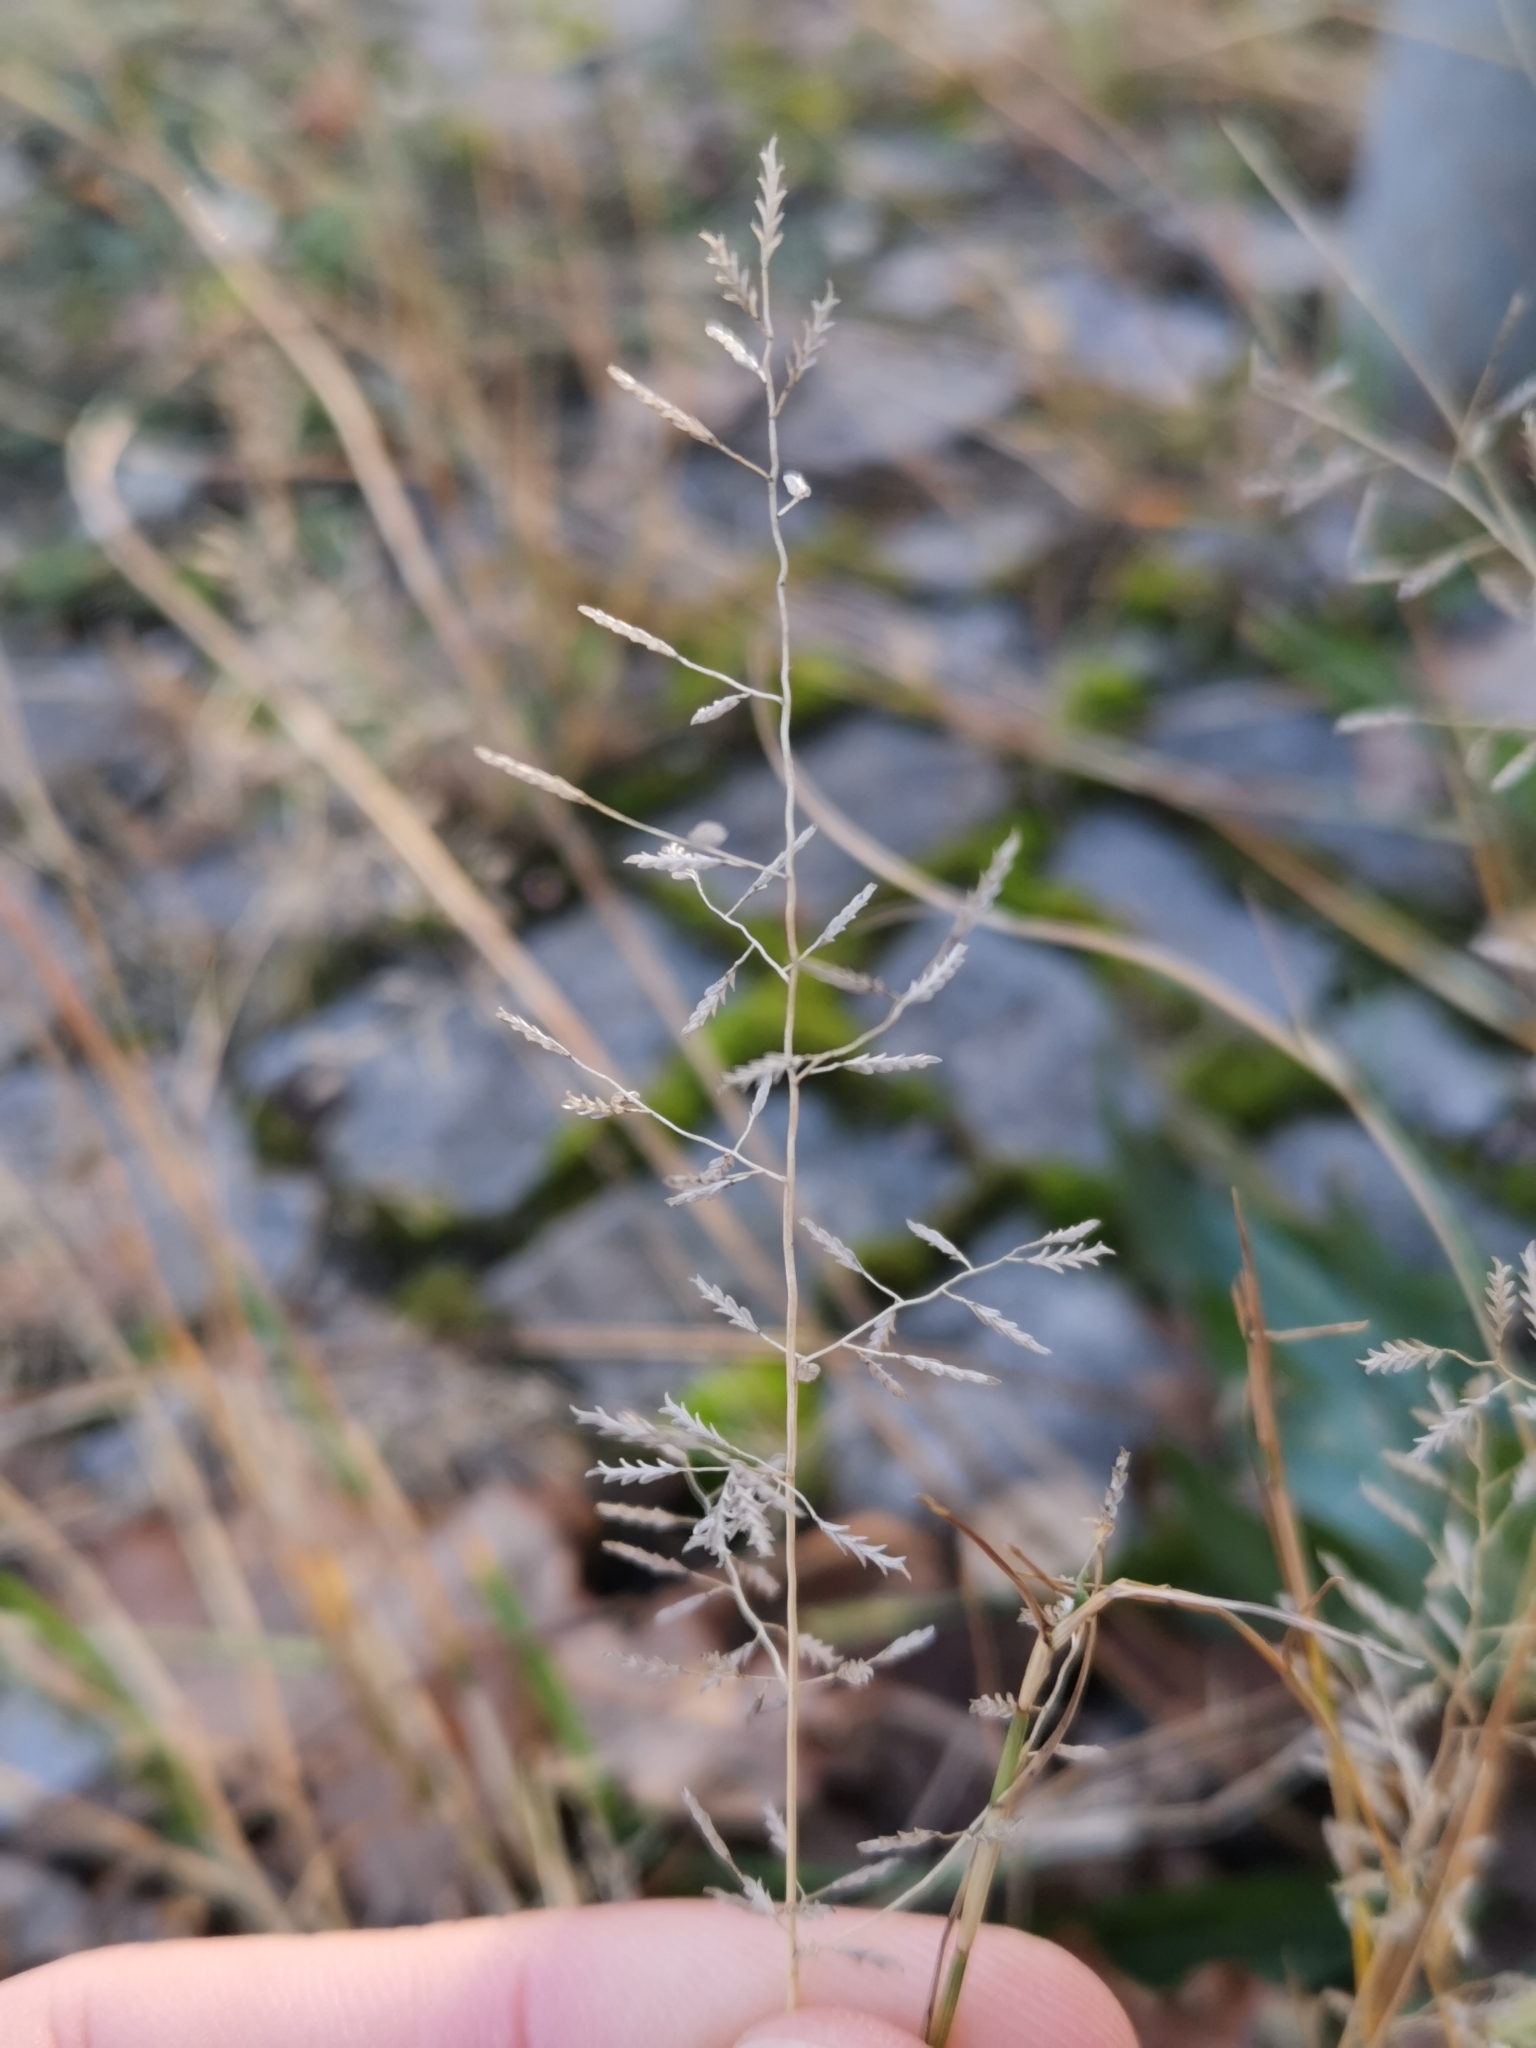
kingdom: Plantae
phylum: Tracheophyta
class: Liliopsida
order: Poales
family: Poaceae
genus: Eragrostis
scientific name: Eragrostis minor
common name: Small love-grass
